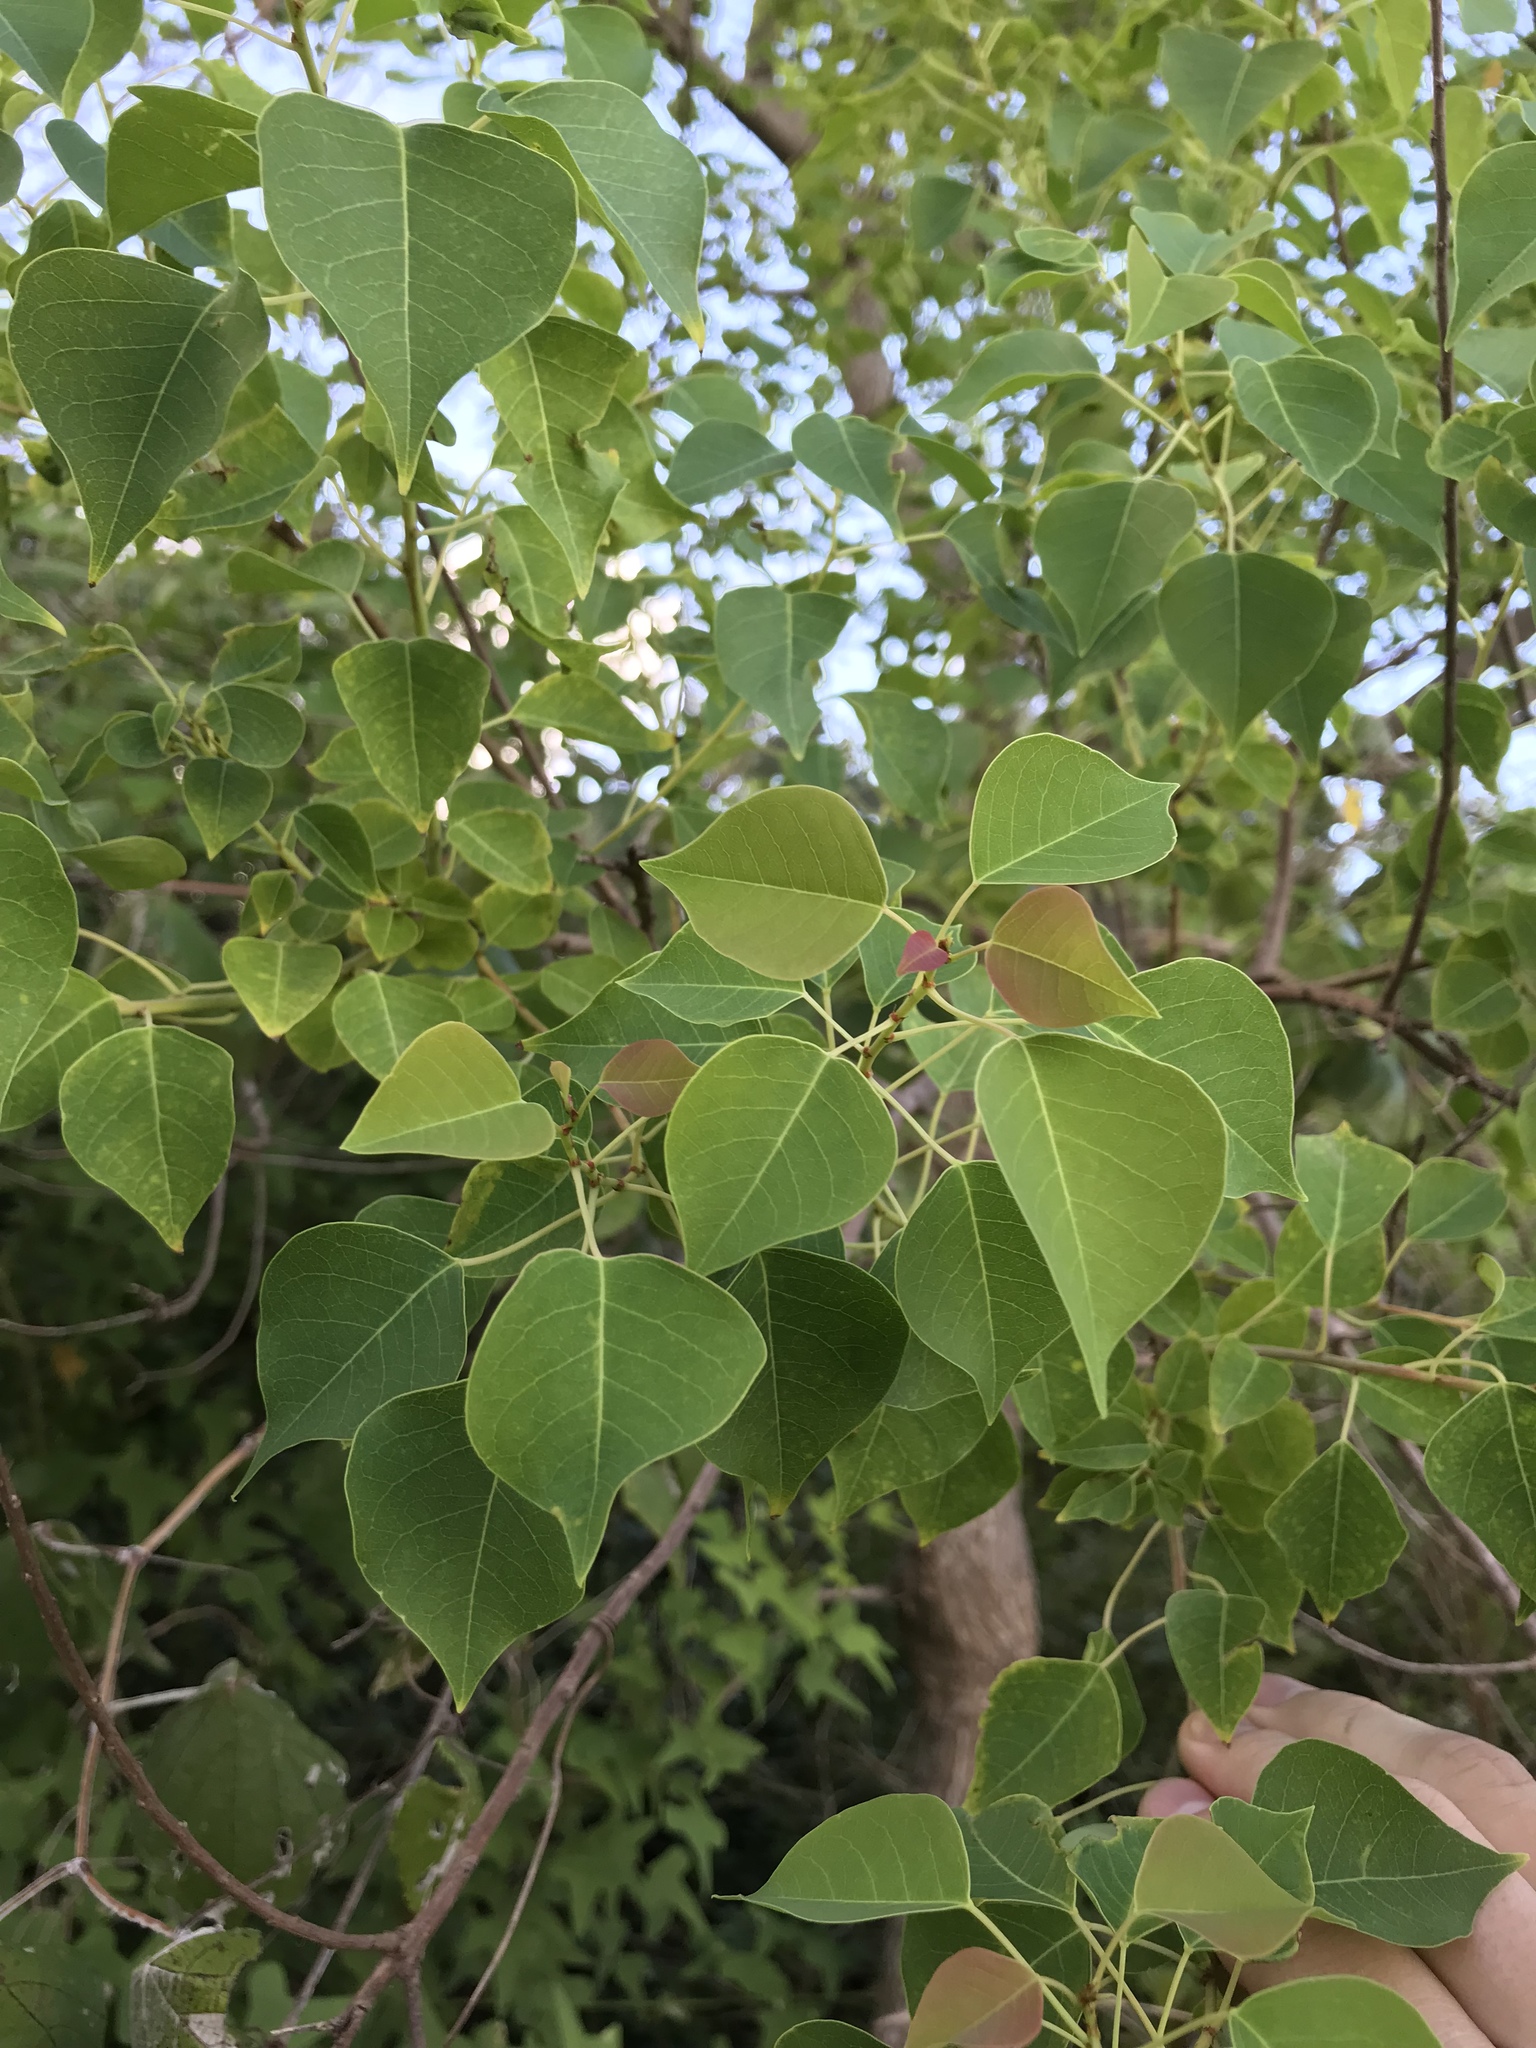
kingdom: Plantae
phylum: Tracheophyta
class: Magnoliopsida
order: Malpighiales
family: Euphorbiaceae
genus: Triadica
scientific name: Triadica sebifera
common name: Chinese tallow
